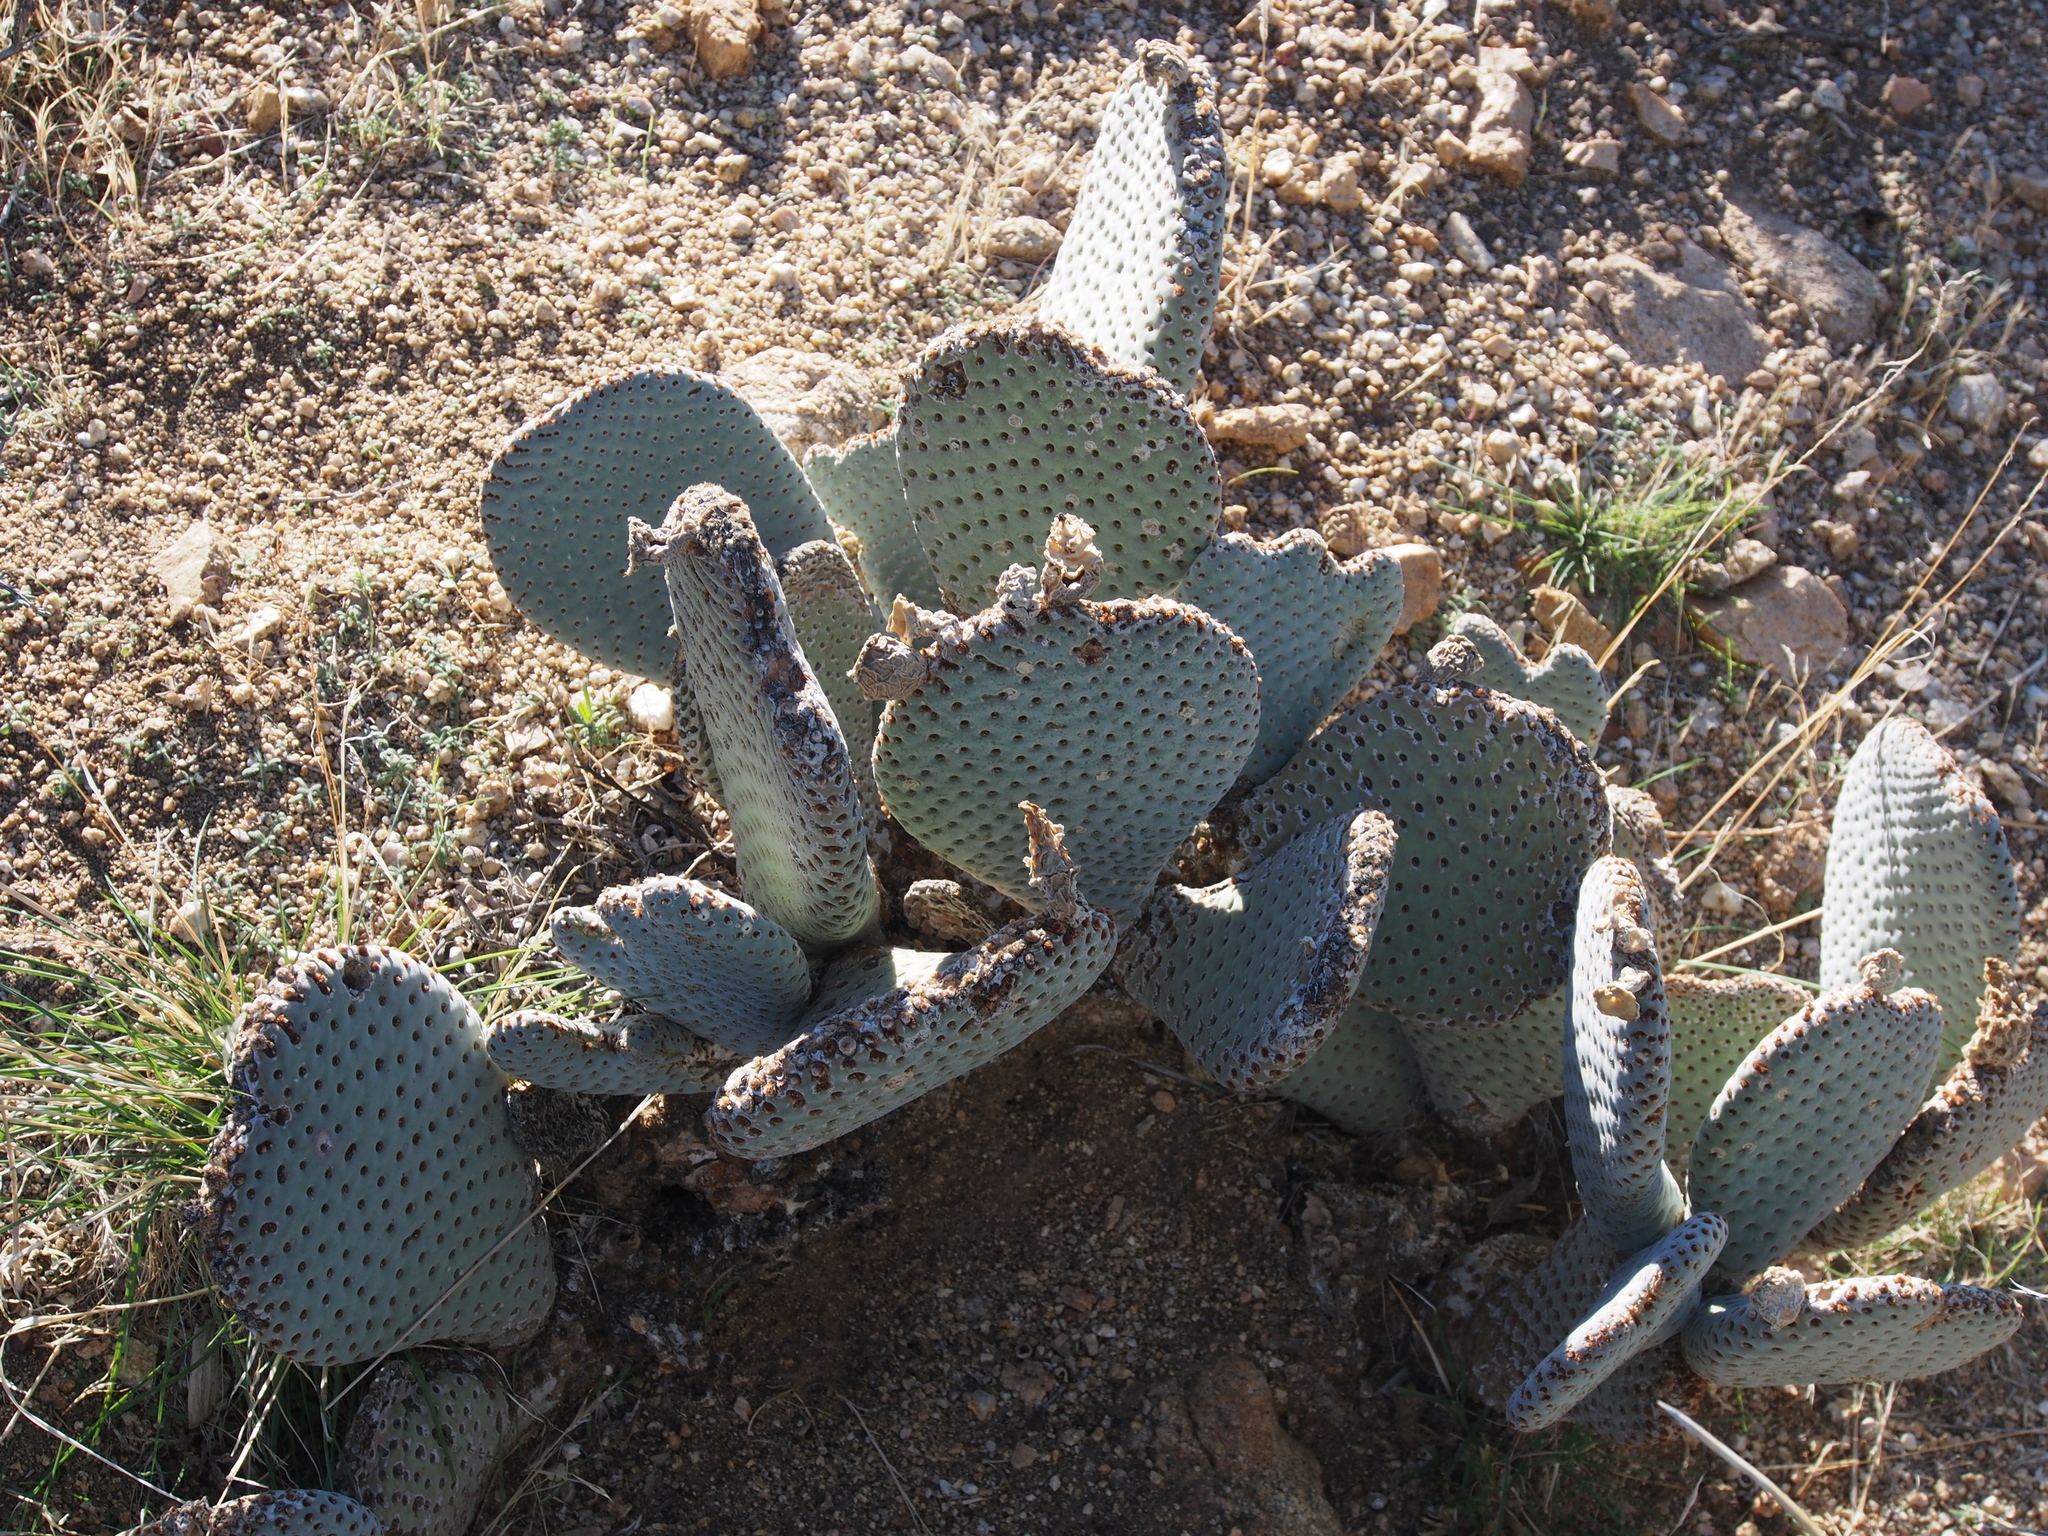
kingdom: Plantae
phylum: Tracheophyta
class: Magnoliopsida
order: Caryophyllales
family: Cactaceae
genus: Opuntia
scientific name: Opuntia basilaris
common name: Beavertail prickly-pear
